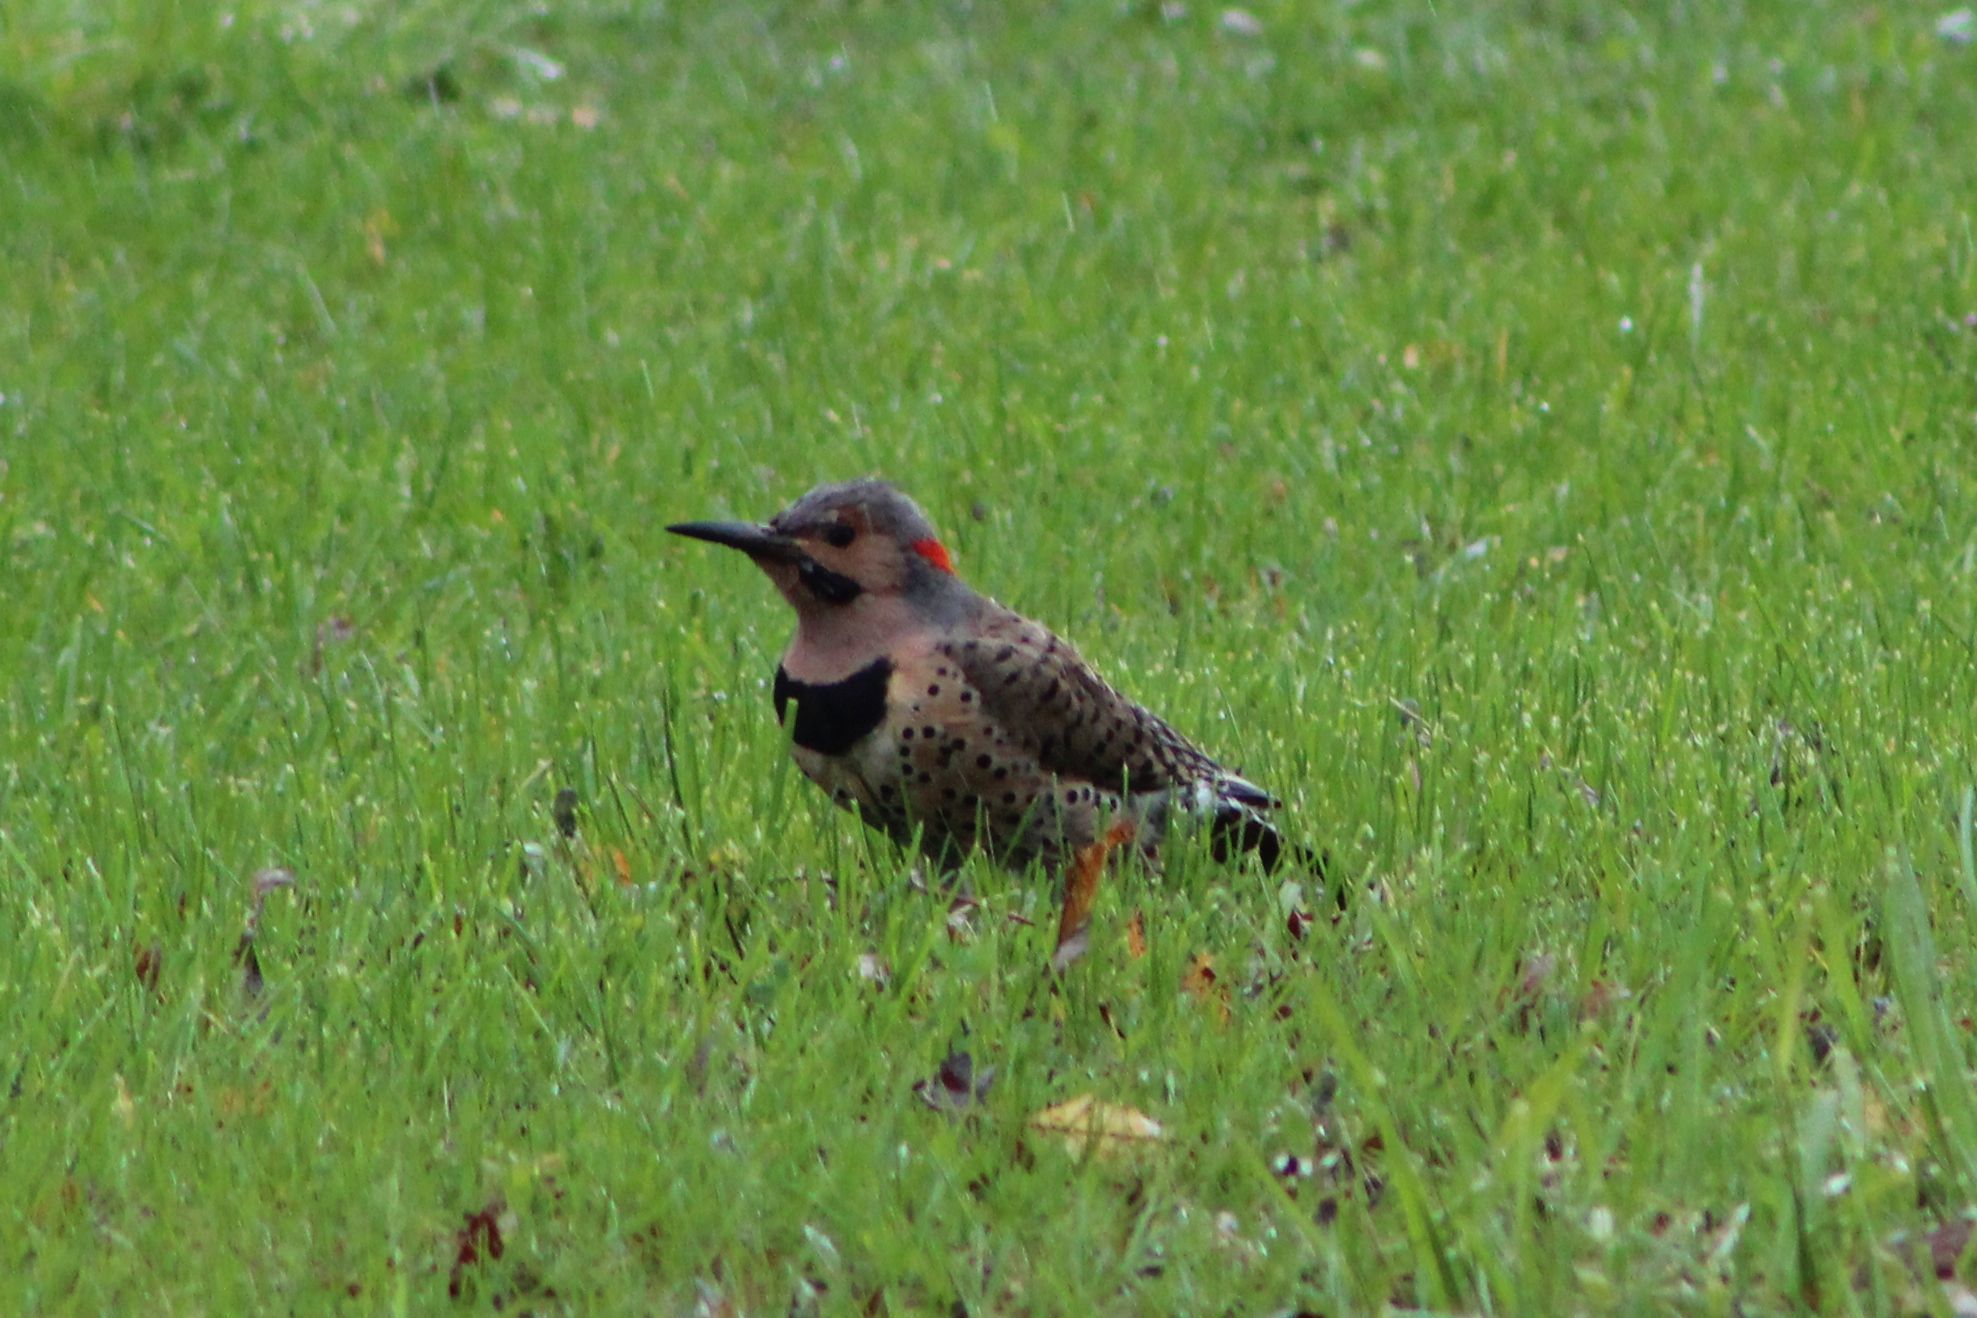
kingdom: Animalia
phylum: Chordata
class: Aves
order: Piciformes
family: Picidae
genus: Colaptes
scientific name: Colaptes auratus
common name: Northern flicker
